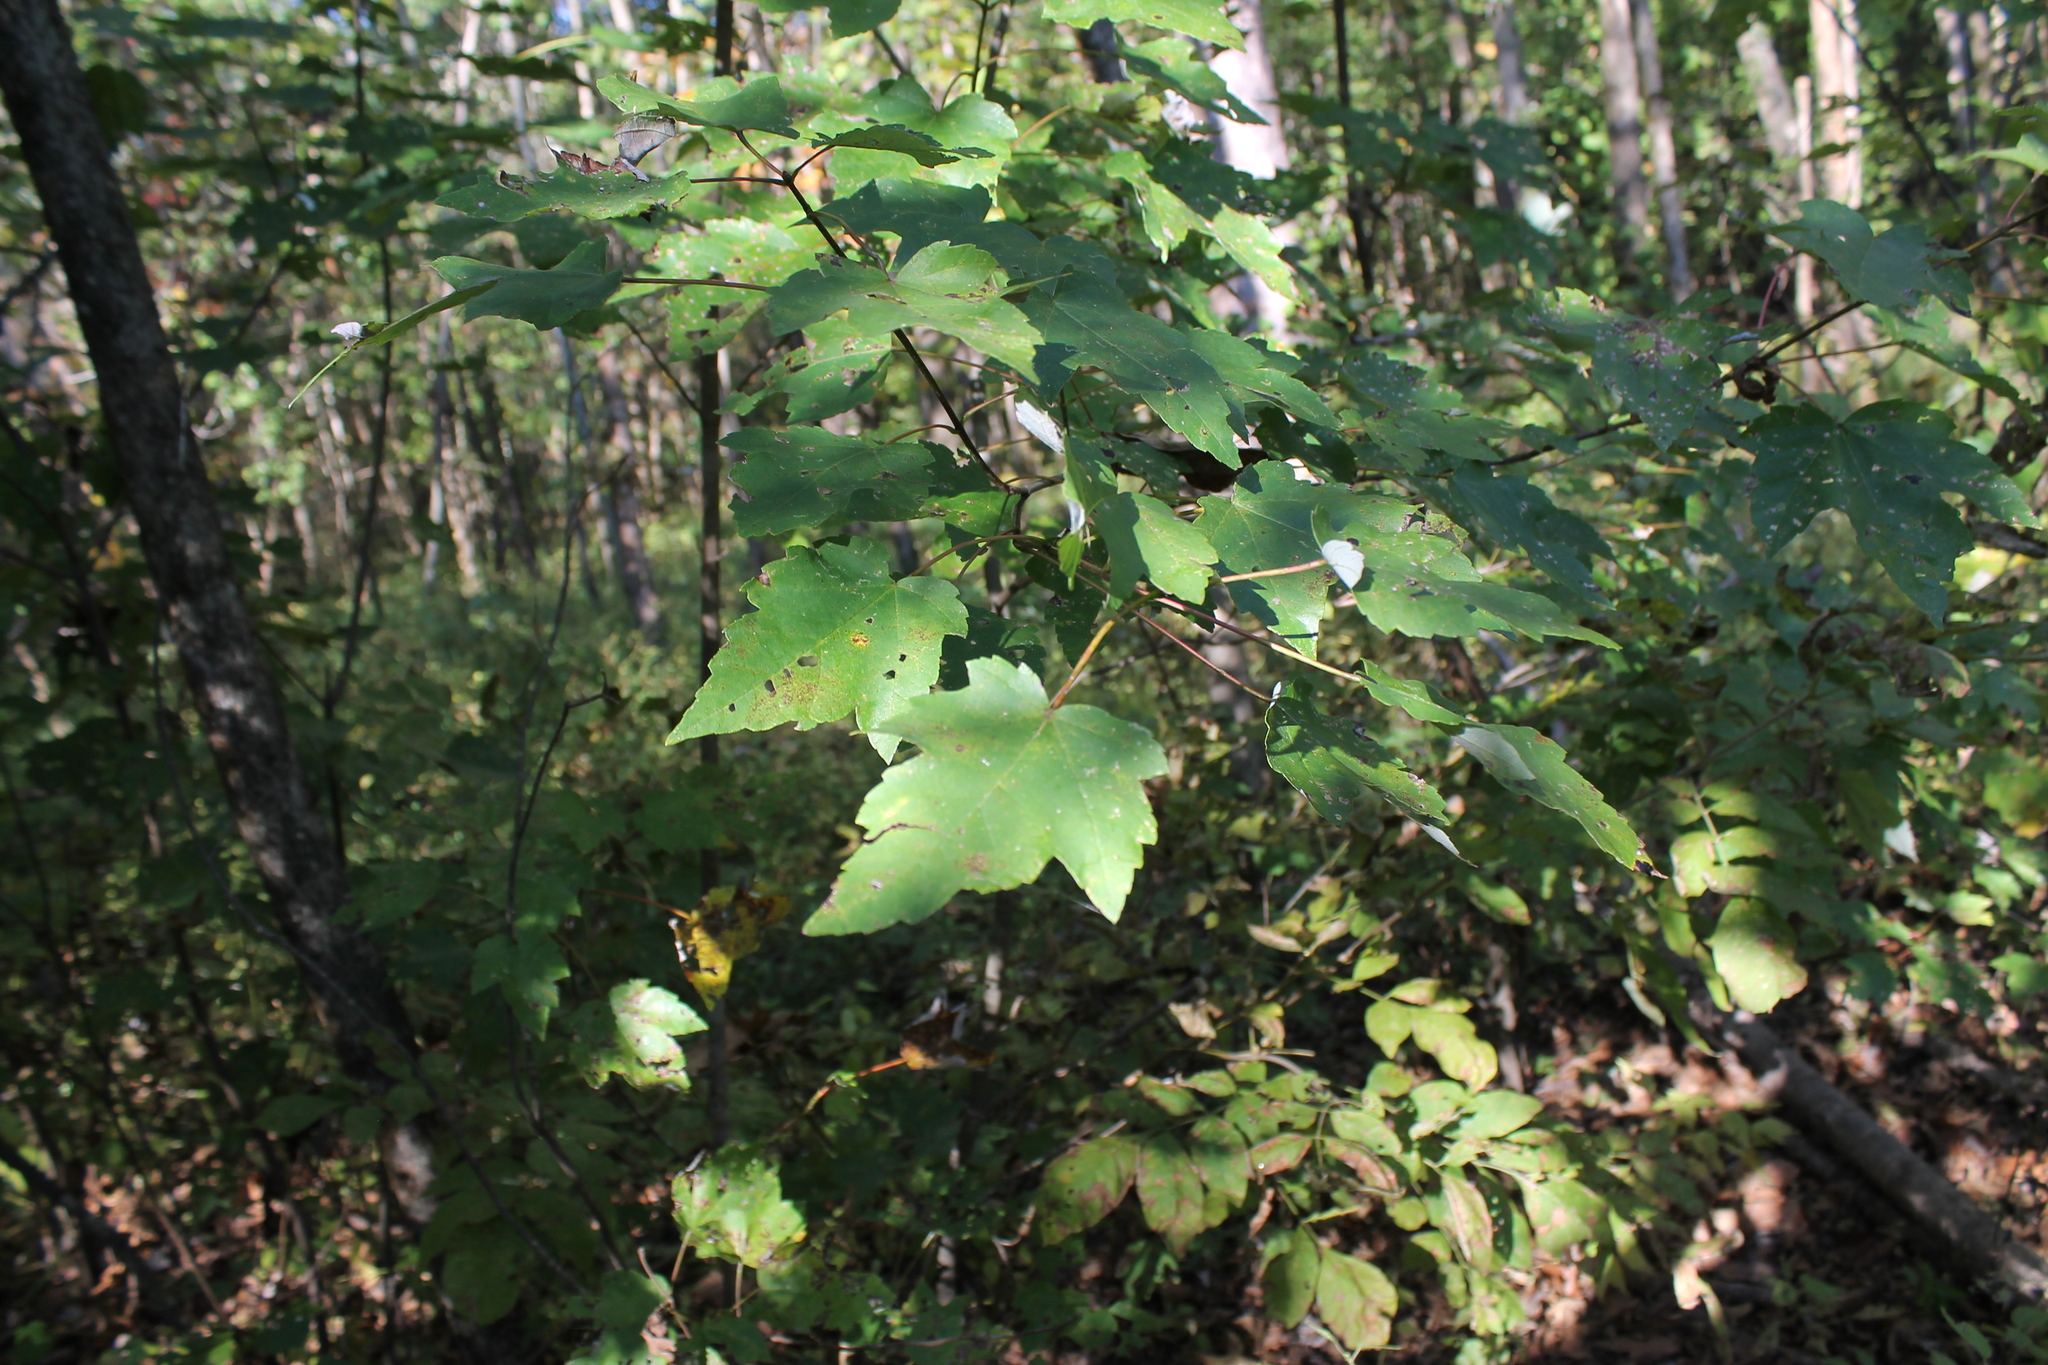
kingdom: Plantae
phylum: Tracheophyta
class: Magnoliopsida
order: Sapindales
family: Sapindaceae
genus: Acer
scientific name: Acer rubrum
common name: Red maple
